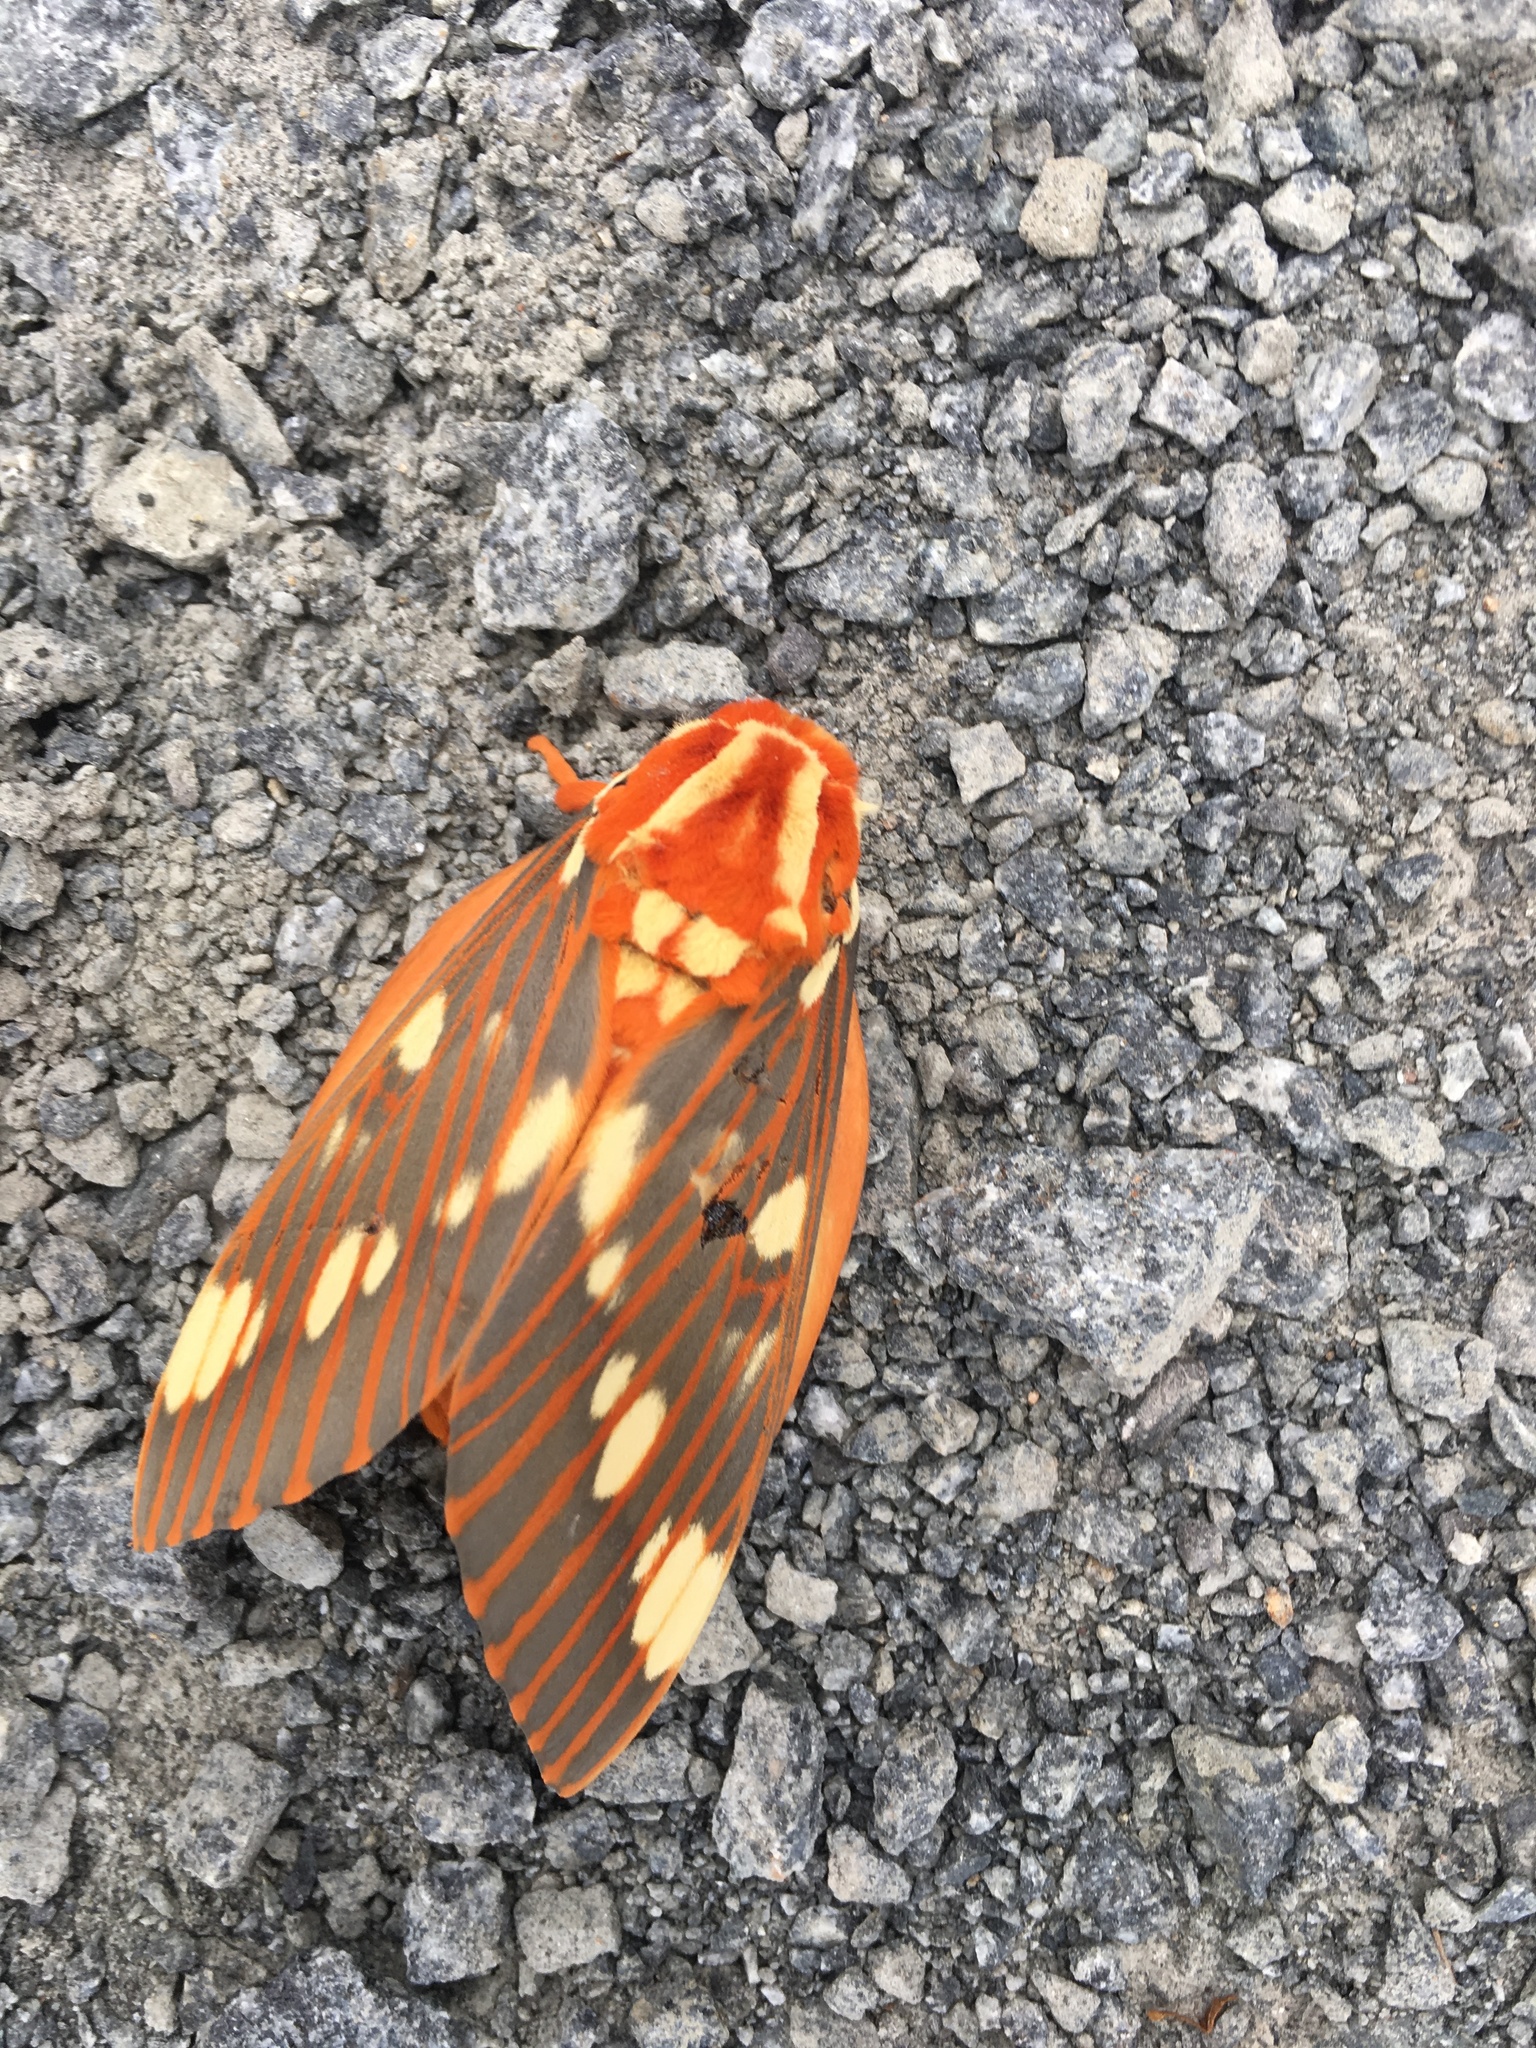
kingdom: Animalia
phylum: Arthropoda
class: Insecta
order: Lepidoptera
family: Saturniidae
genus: Citheronia
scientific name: Citheronia regalis
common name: Hickory horned devil
